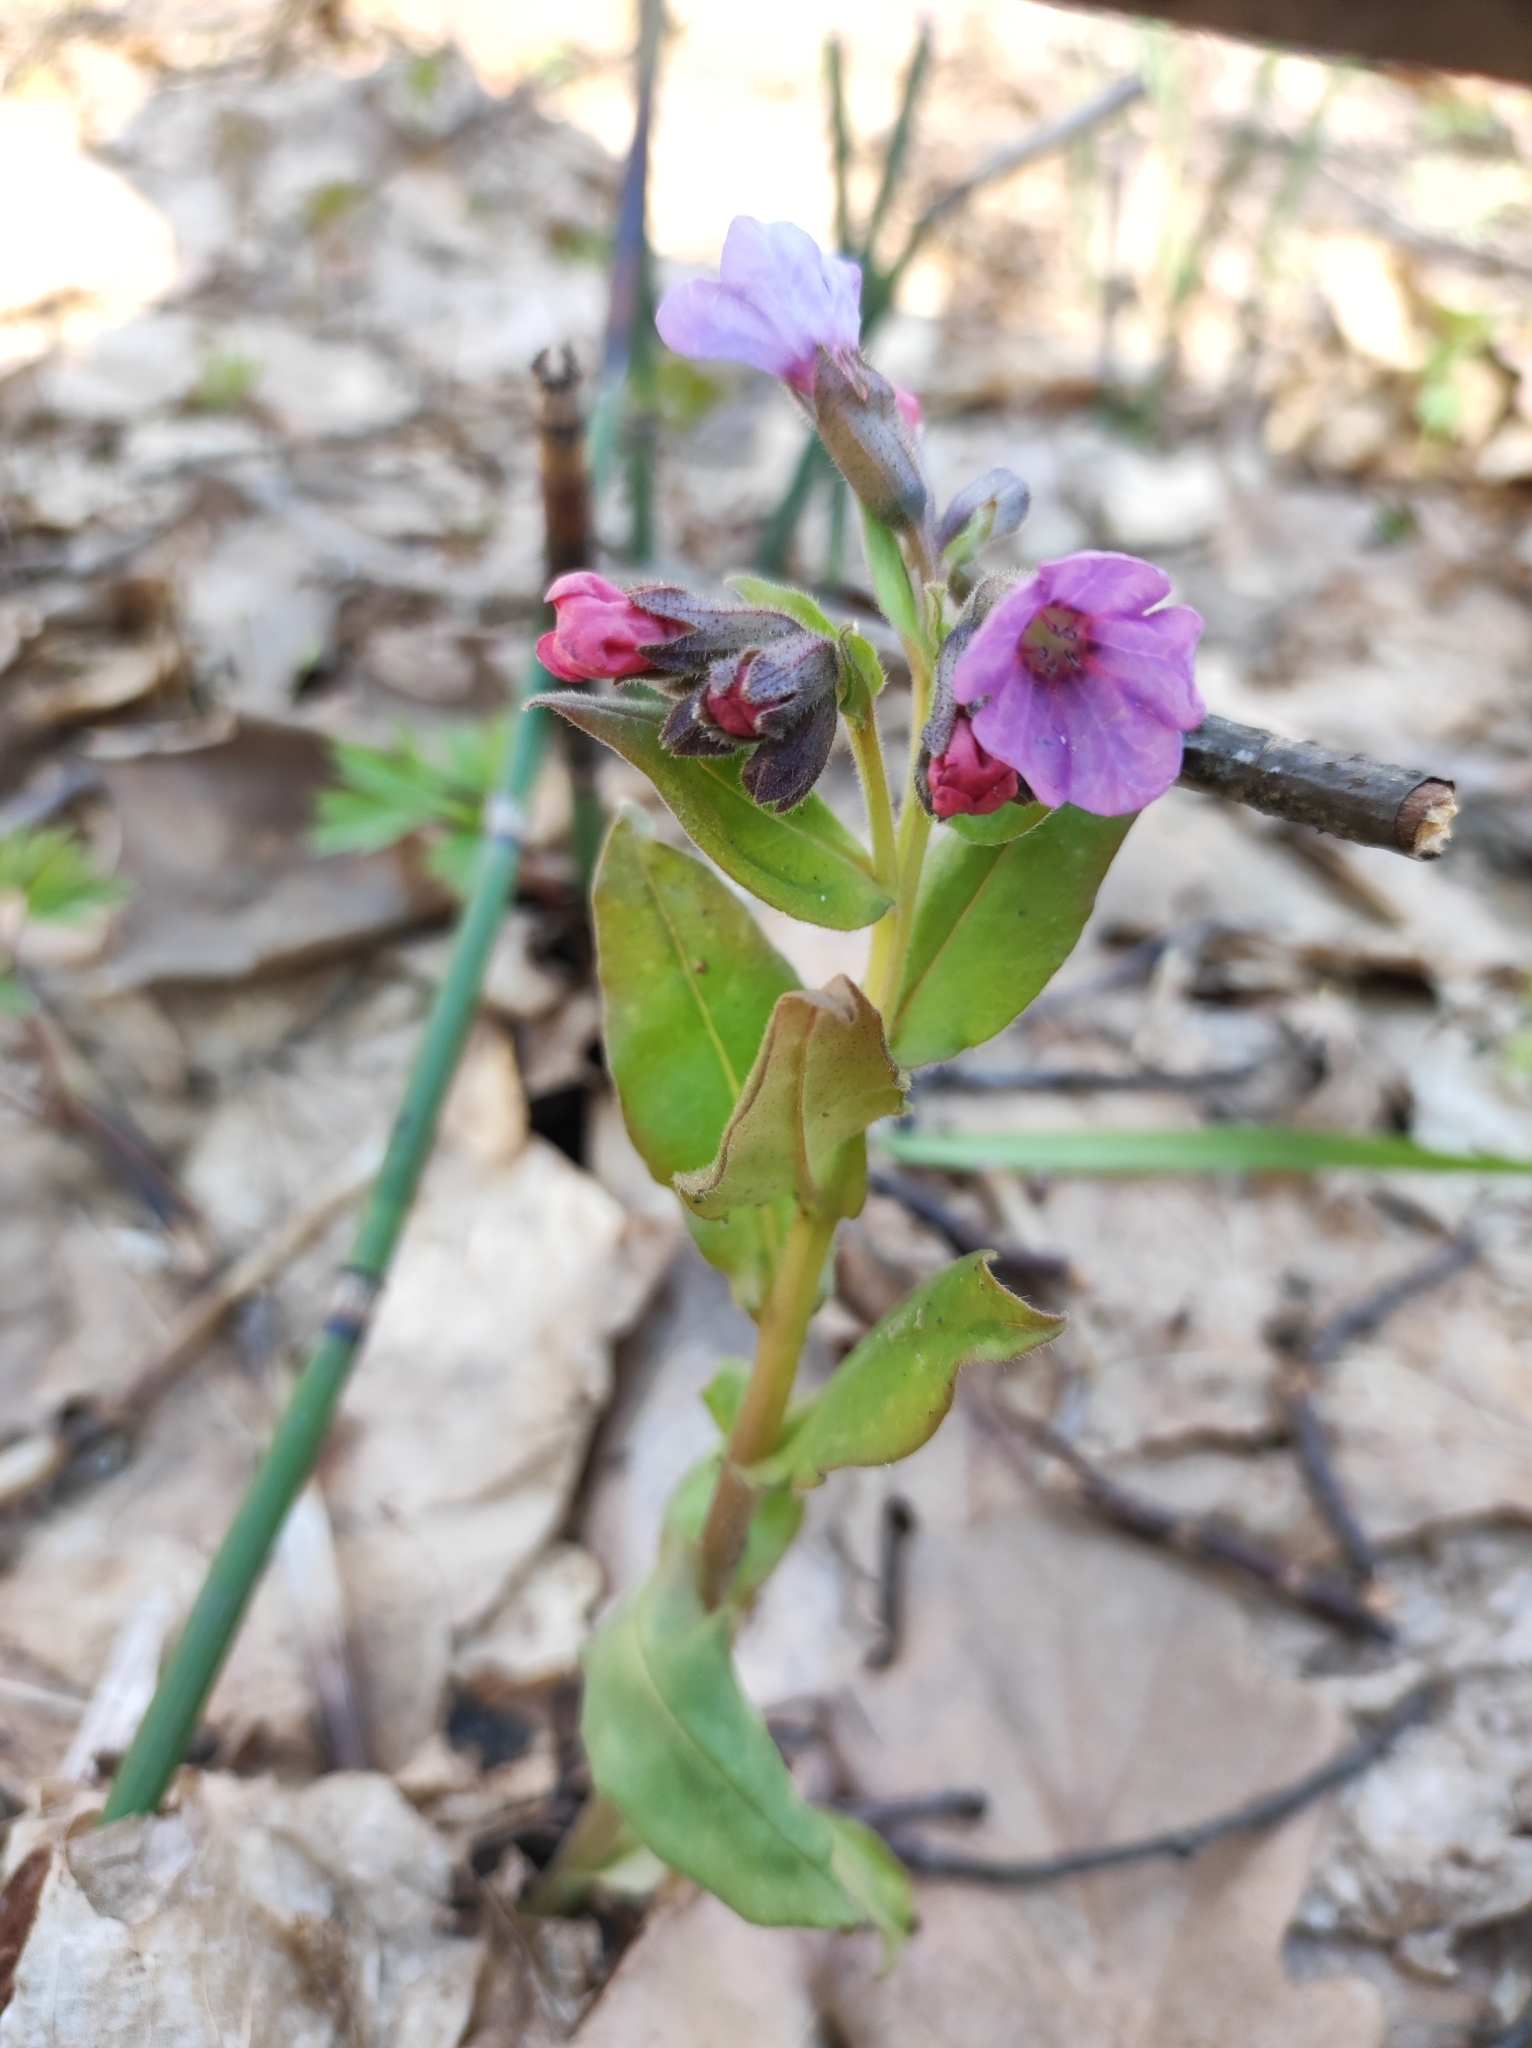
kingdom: Plantae
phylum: Tracheophyta
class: Magnoliopsida
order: Boraginales
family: Boraginaceae
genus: Pulmonaria
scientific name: Pulmonaria obscura
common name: Suffolk lungwort
